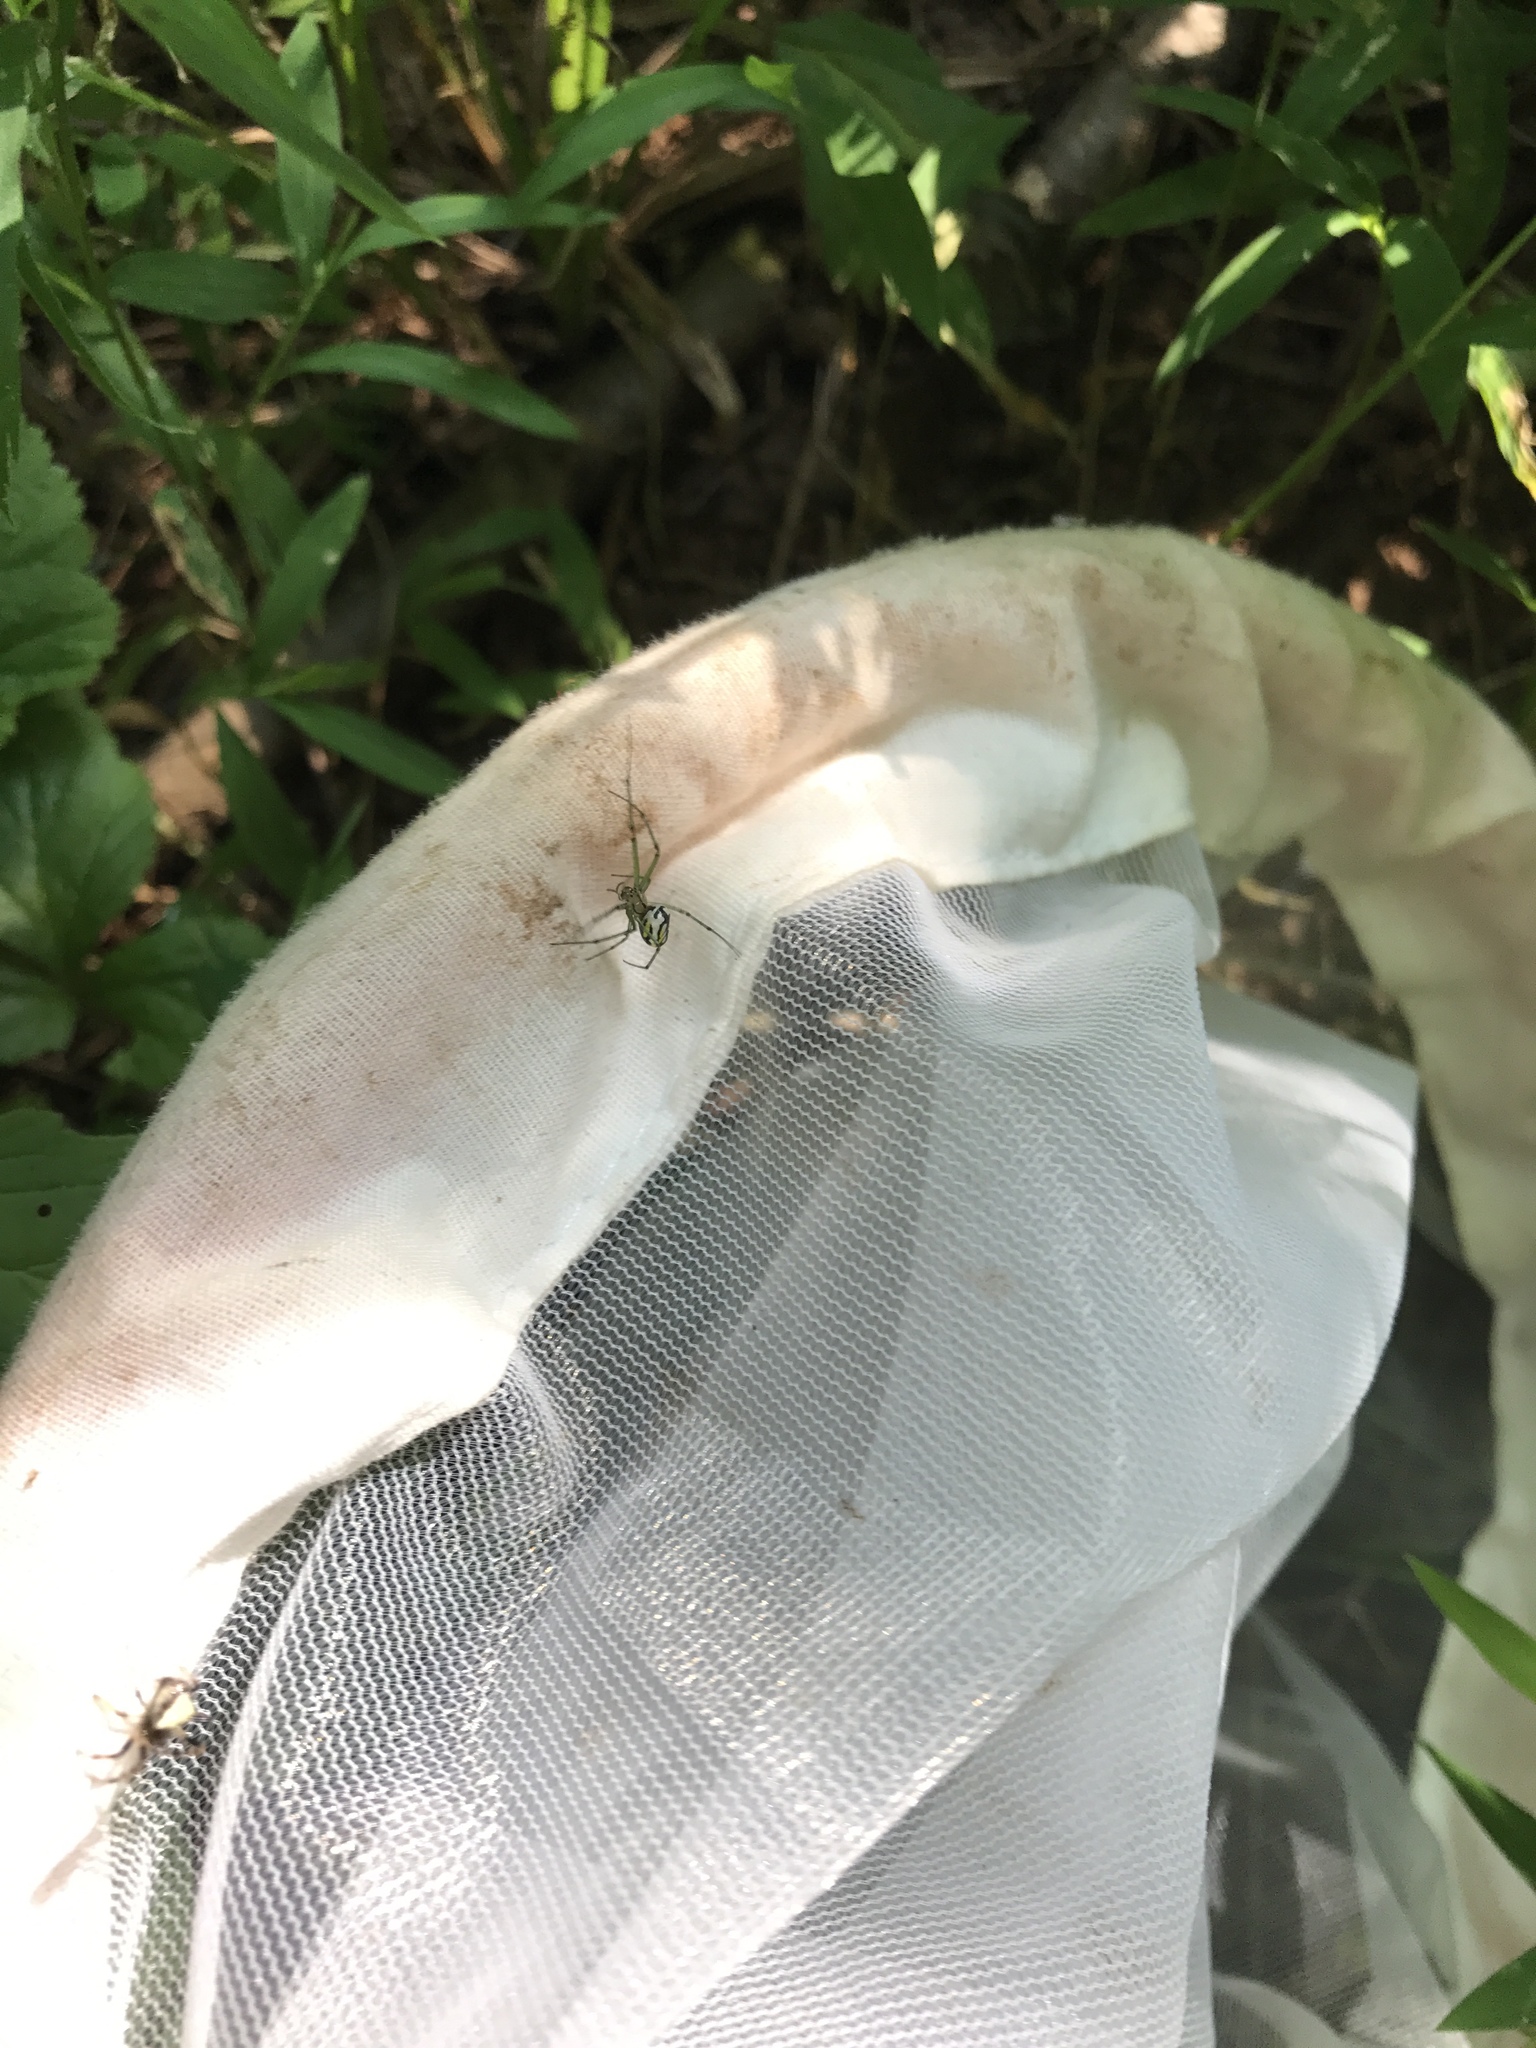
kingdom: Animalia
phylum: Arthropoda
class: Arachnida
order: Araneae
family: Tetragnathidae
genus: Leucauge
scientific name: Leucauge venusta
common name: Longjawed orb weavers
